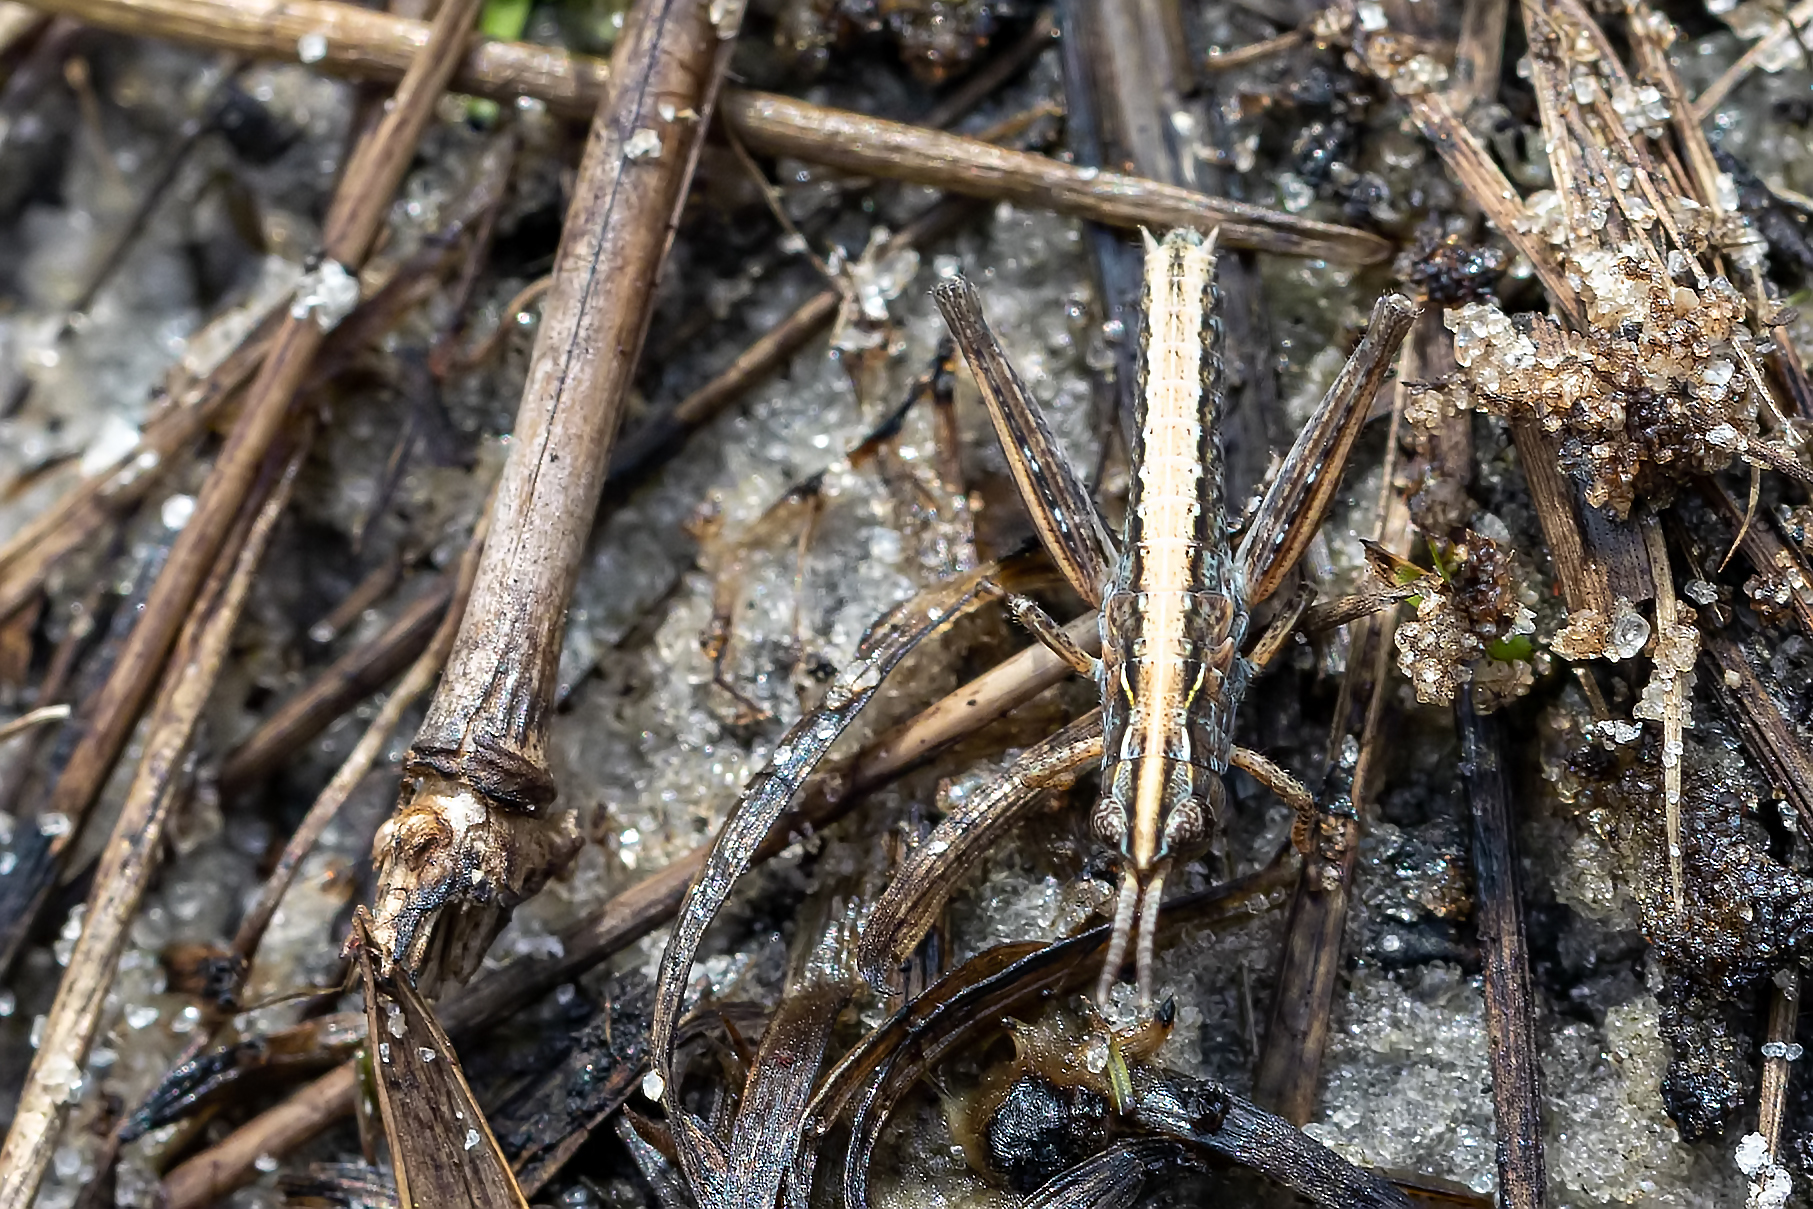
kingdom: Animalia
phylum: Arthropoda
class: Insecta
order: Orthoptera
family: Acrididae
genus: Orphulella
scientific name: Orphulella pelidna
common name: Spotted-wing grasshopper
